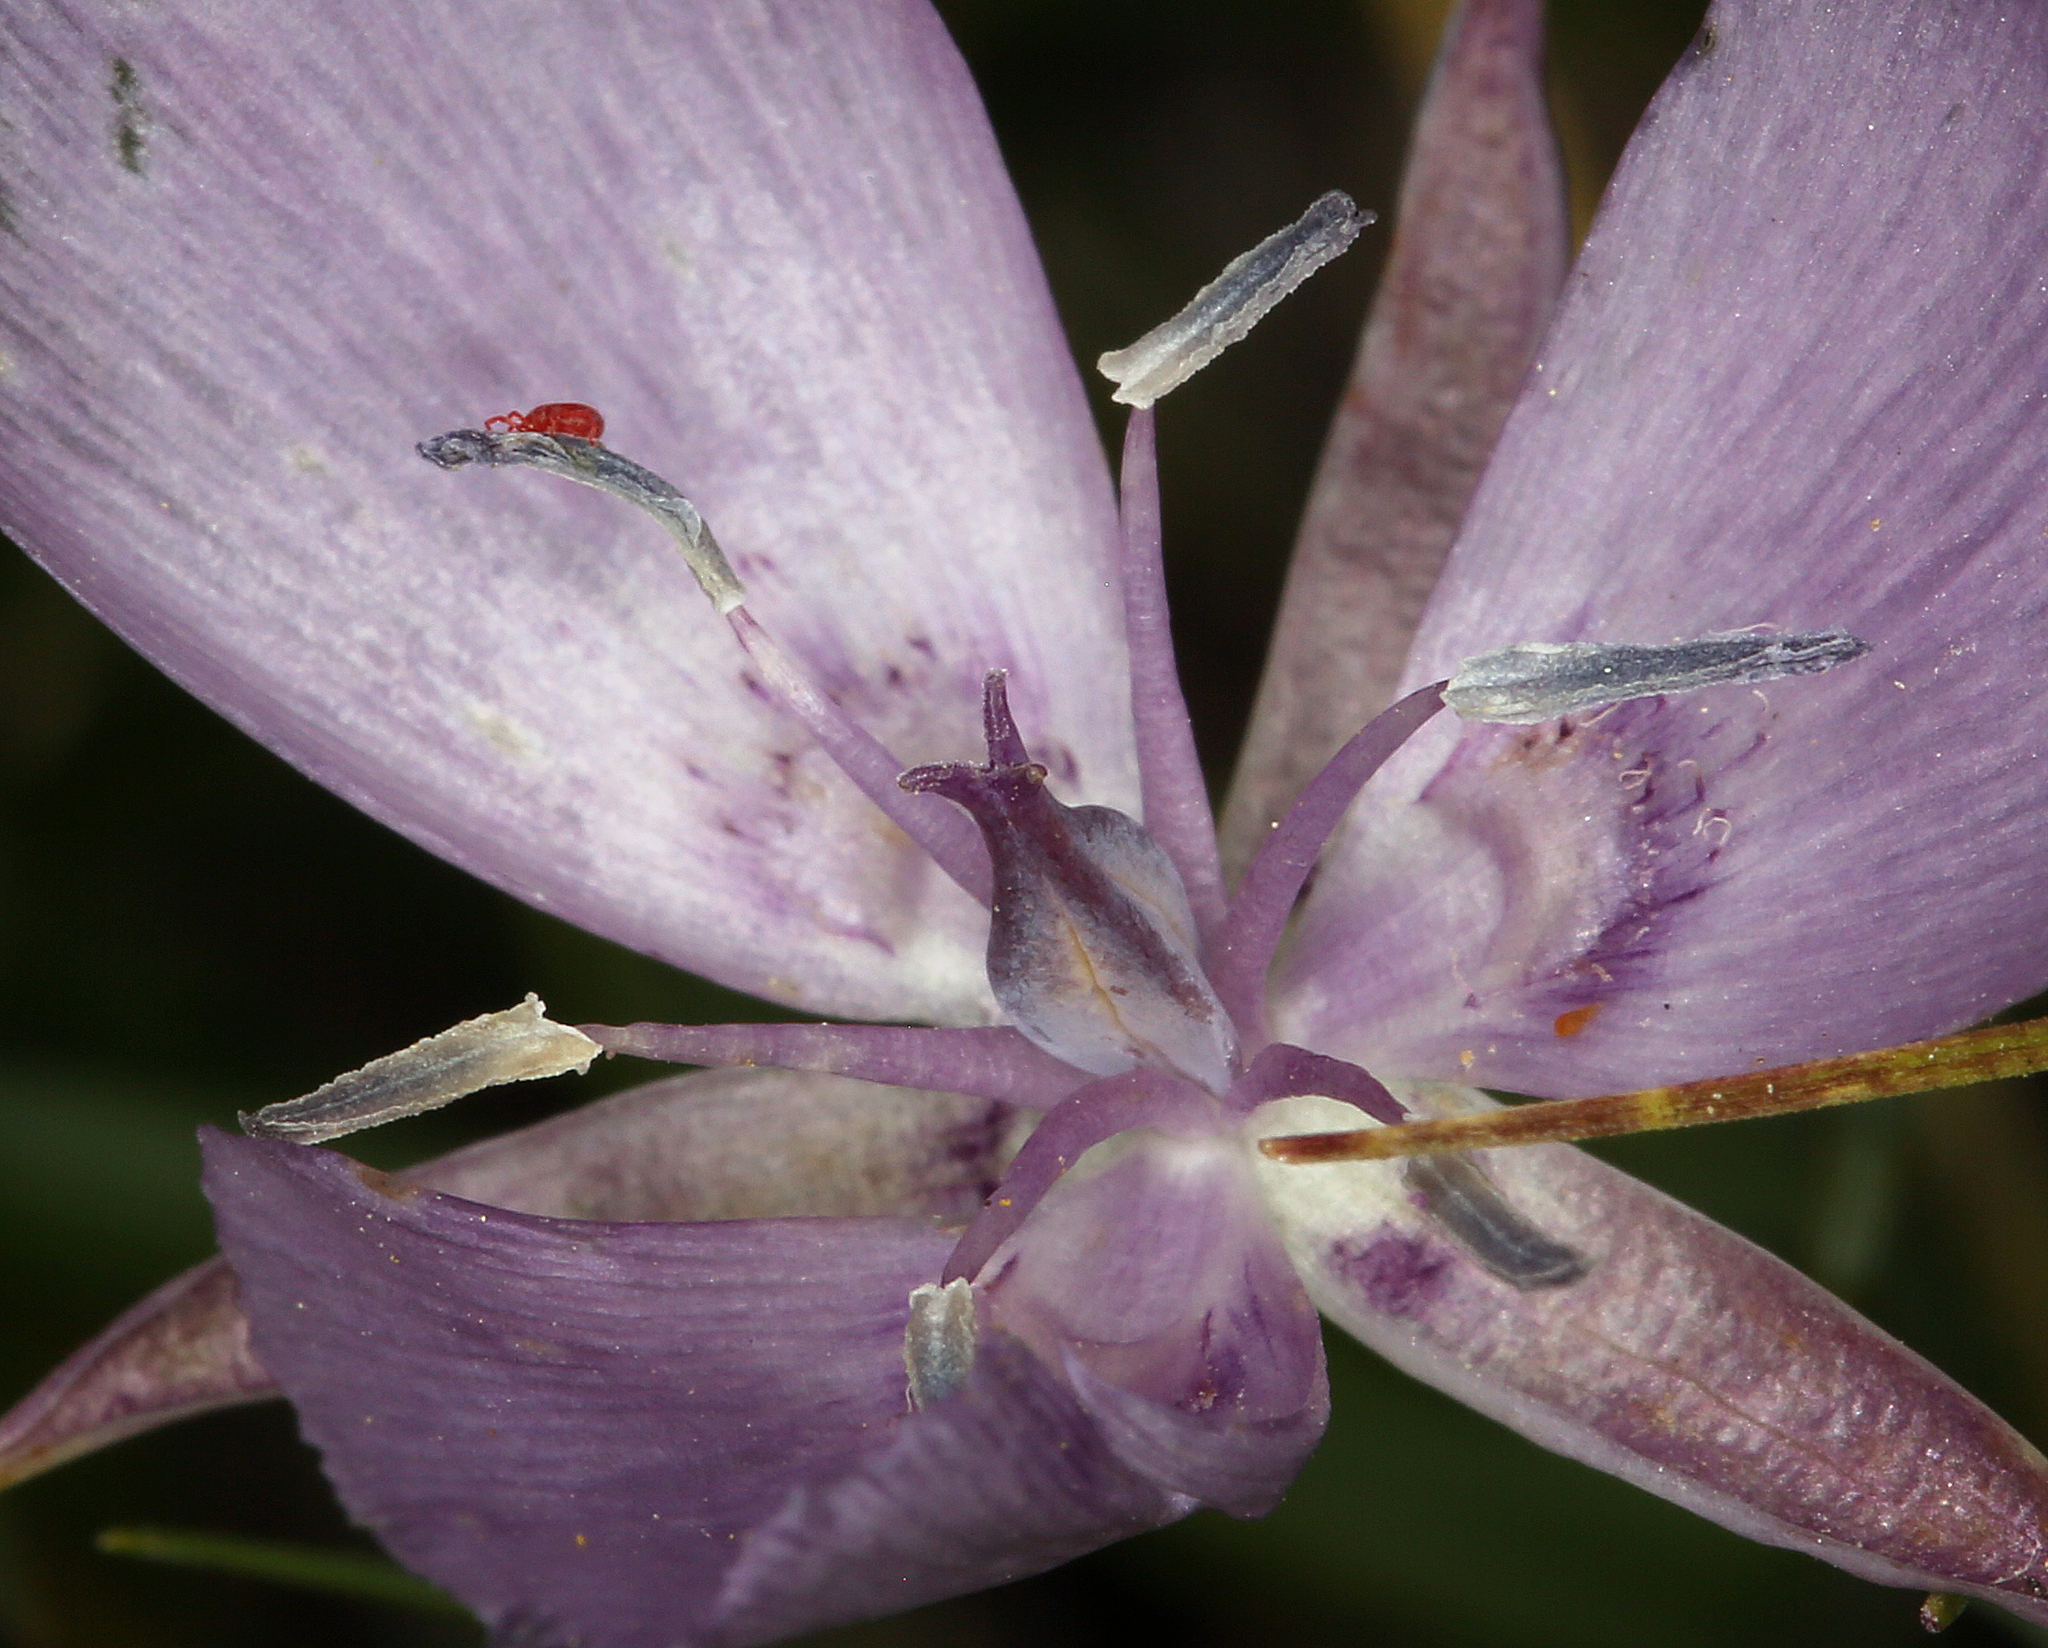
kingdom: Plantae
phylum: Tracheophyta
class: Liliopsida
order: Liliales
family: Liliaceae
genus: Calochortus
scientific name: Calochortus nudus
